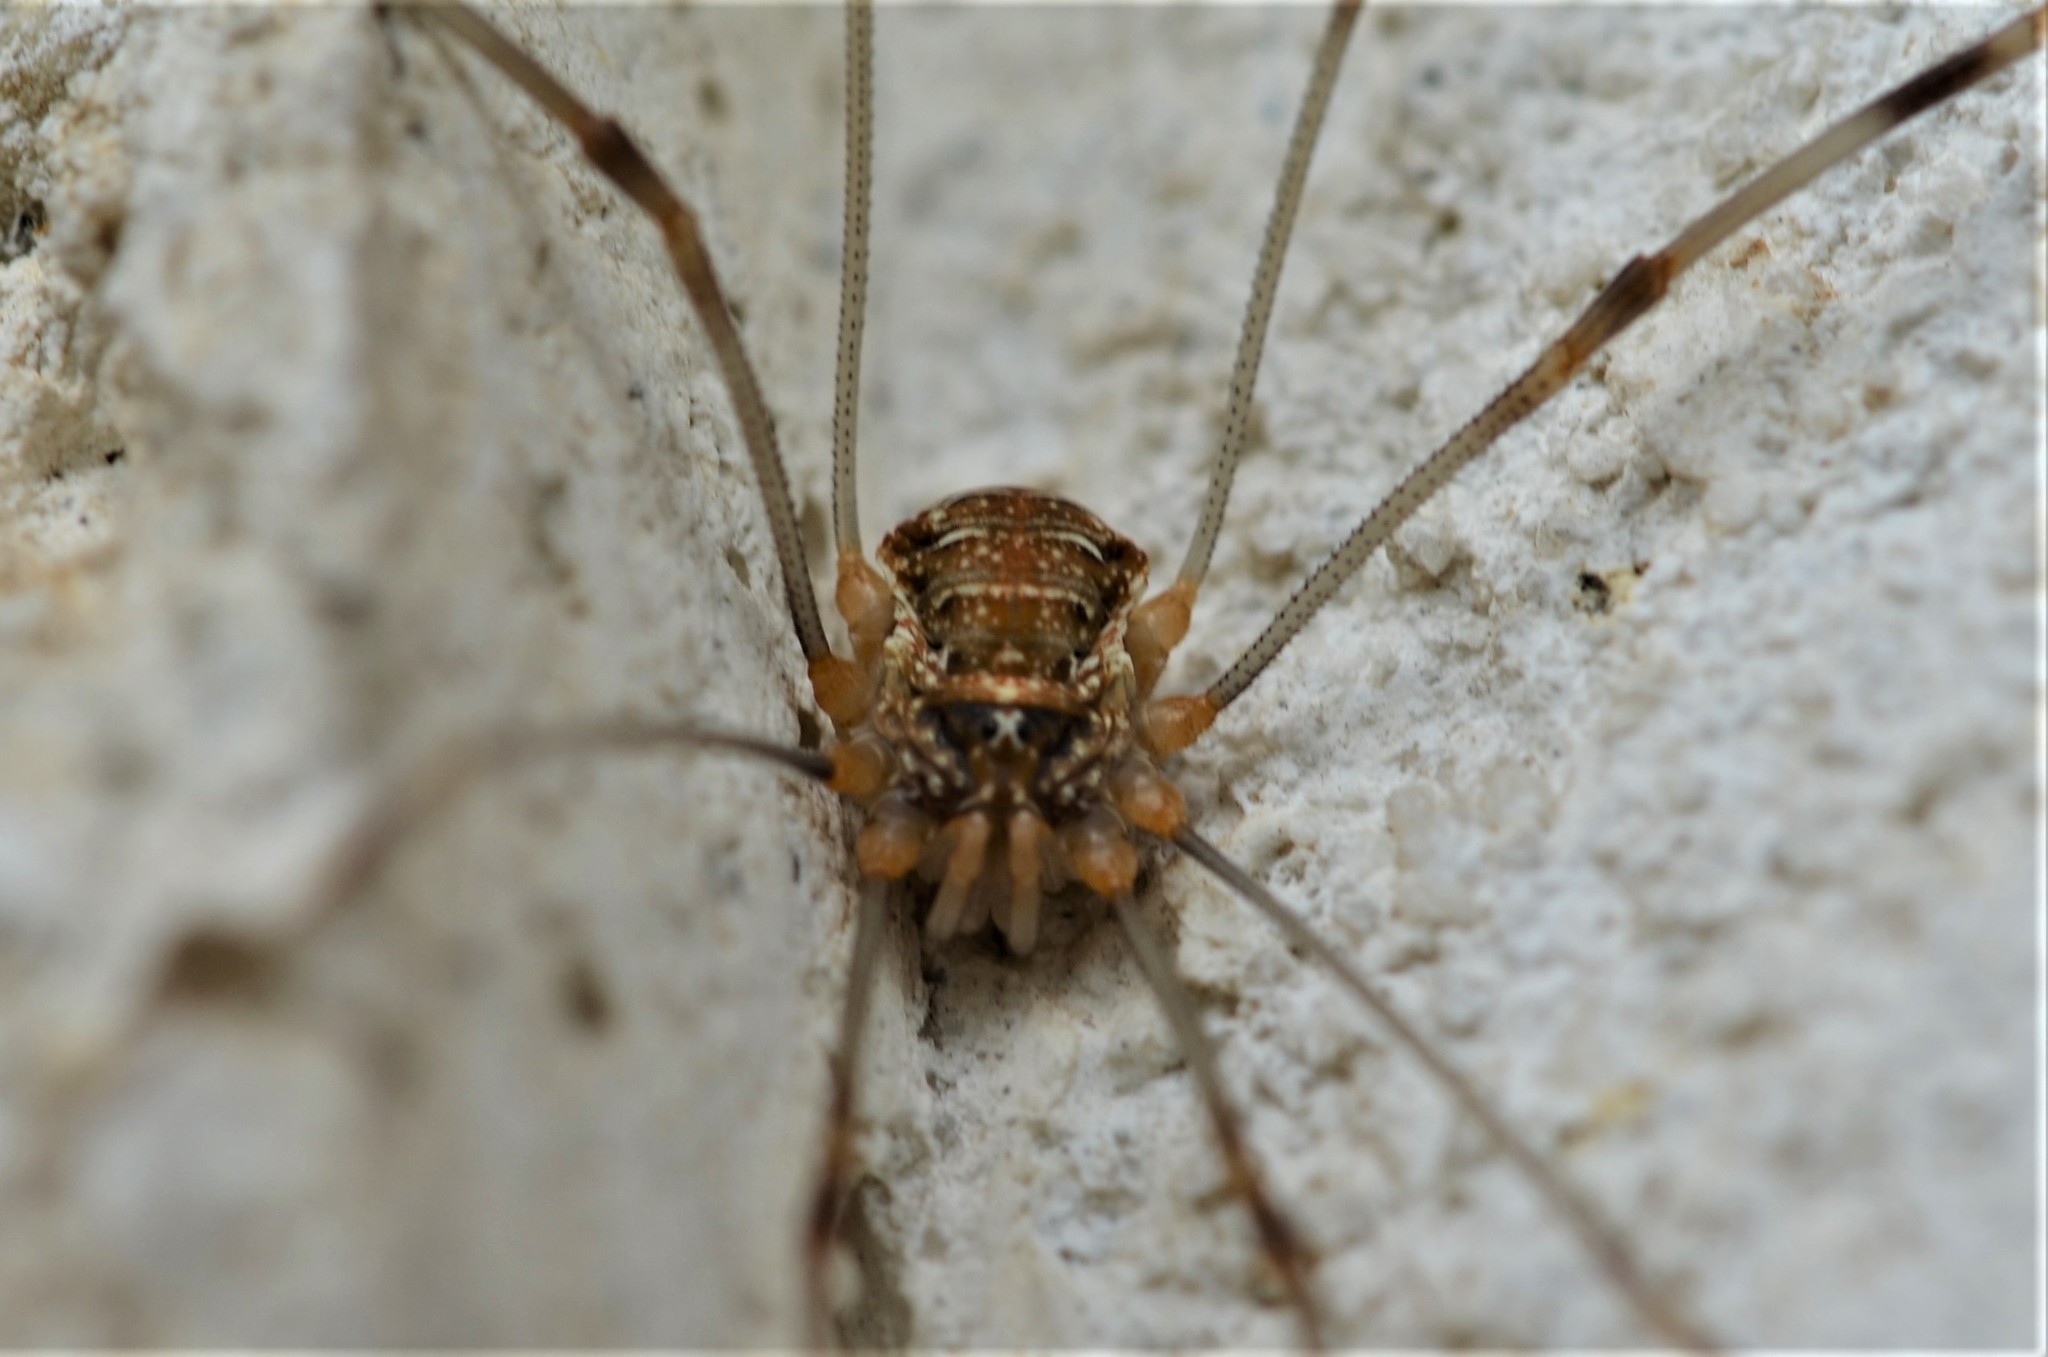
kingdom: Animalia
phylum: Arthropoda
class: Arachnida
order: Opiliones
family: Phalangiidae
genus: Opilio
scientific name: Opilio canestrinii
